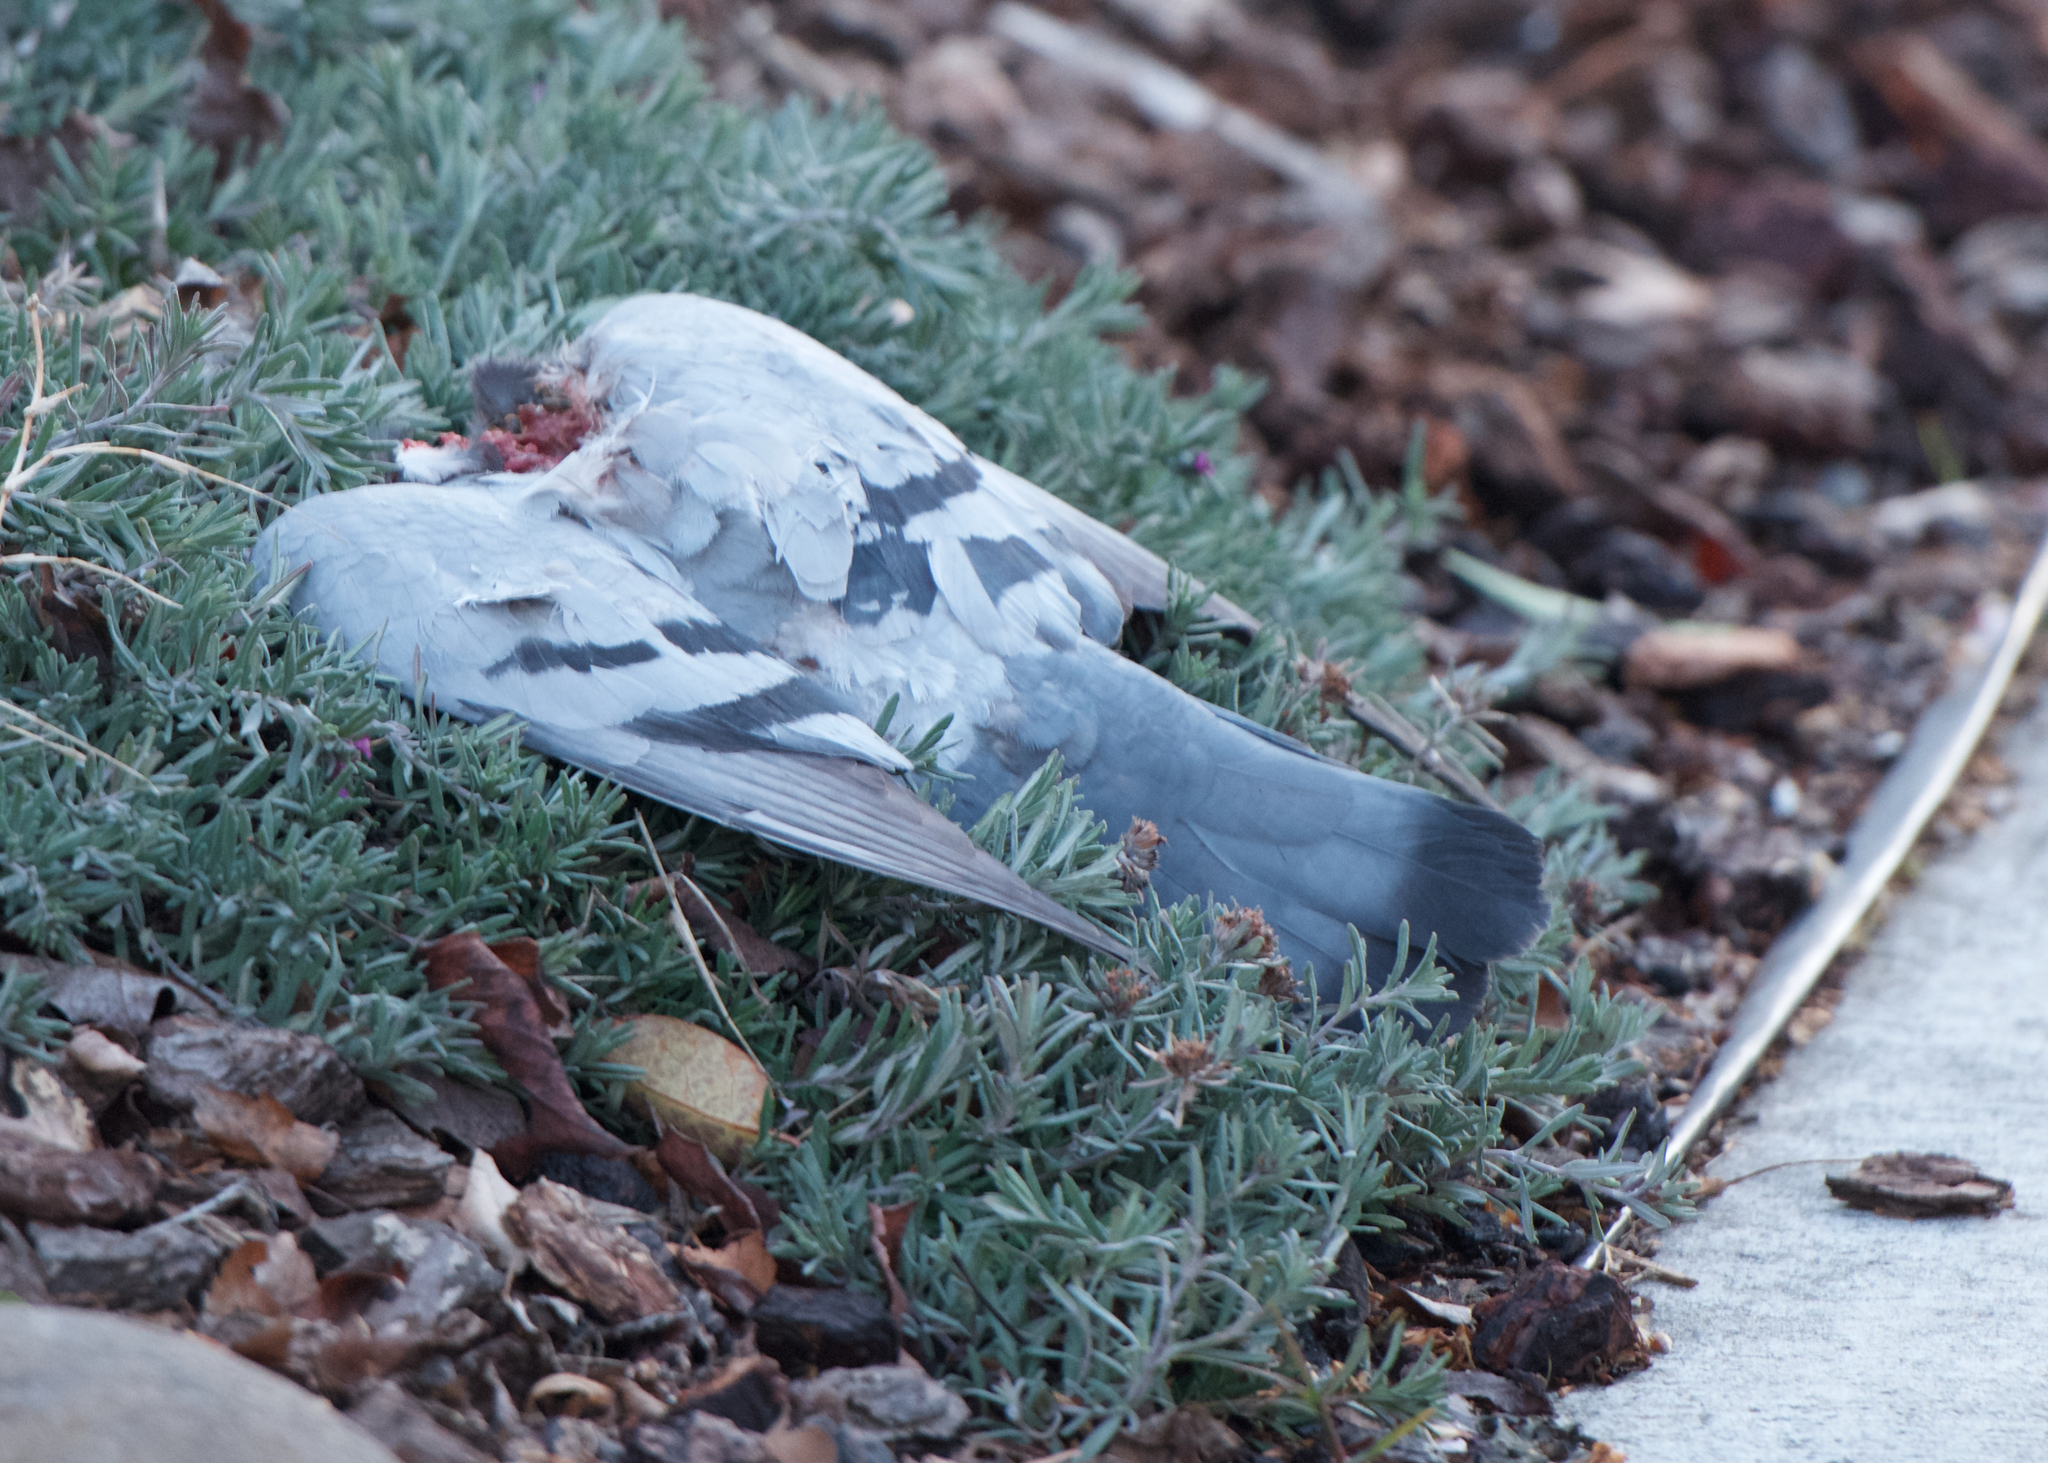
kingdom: Animalia
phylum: Chordata
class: Aves
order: Columbiformes
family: Columbidae
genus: Columba
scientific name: Columba livia
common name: Rock pigeon
